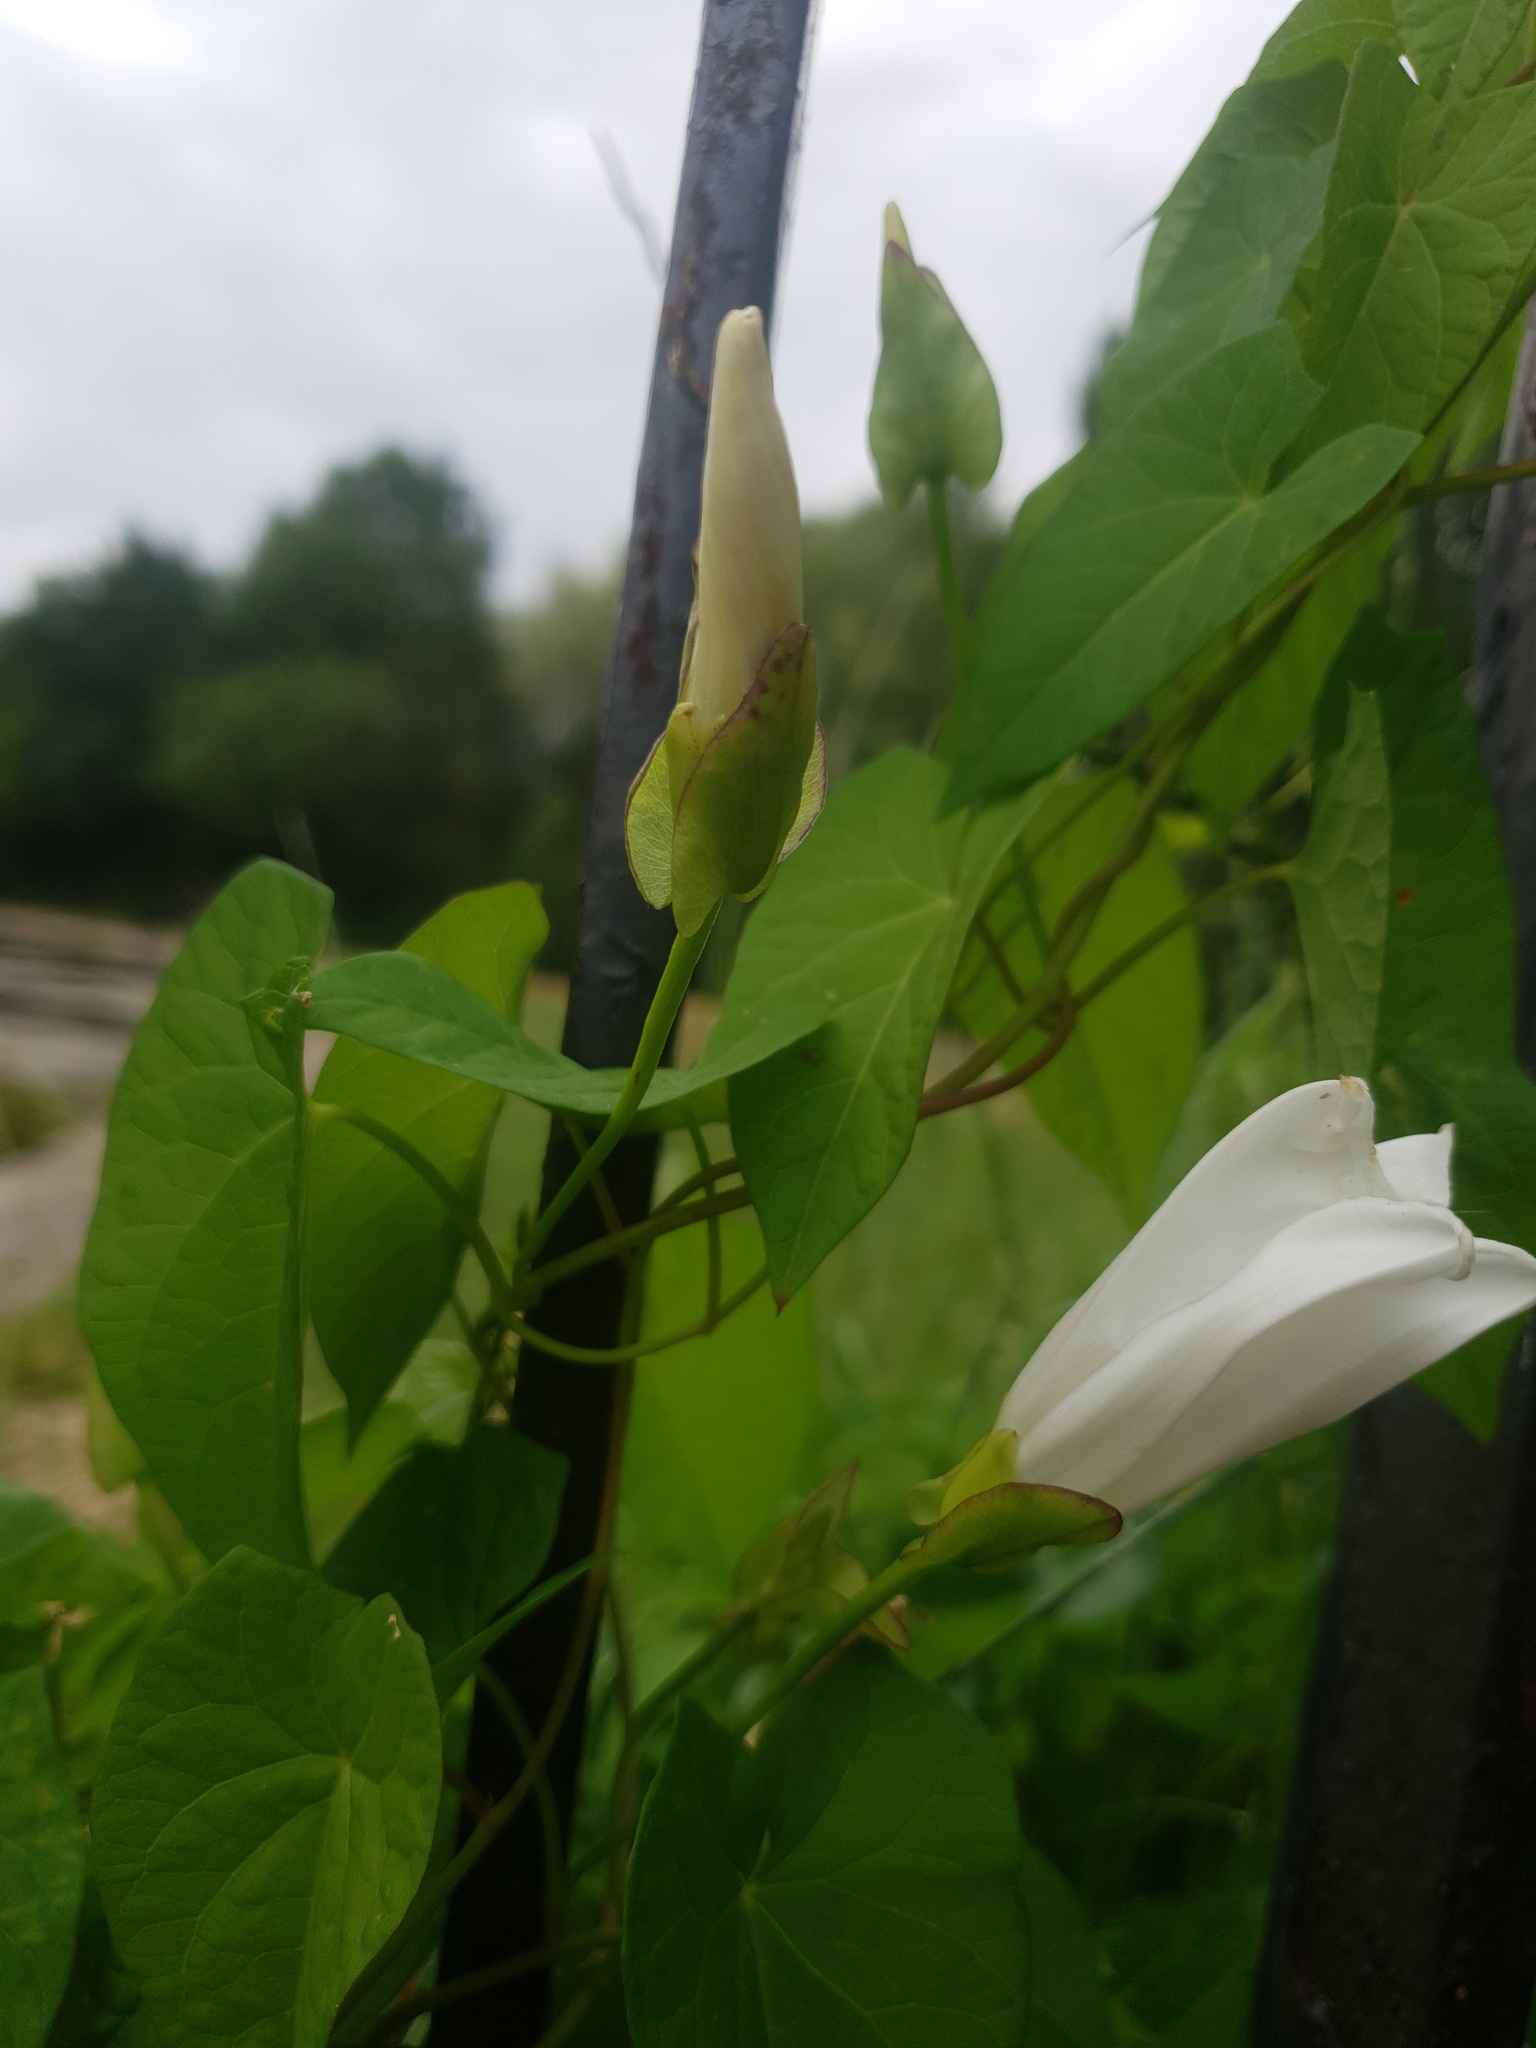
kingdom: Plantae
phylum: Tracheophyta
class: Magnoliopsida
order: Solanales
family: Convolvulaceae
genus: Calystegia
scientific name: Calystegia sepium
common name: Hedge bindweed
